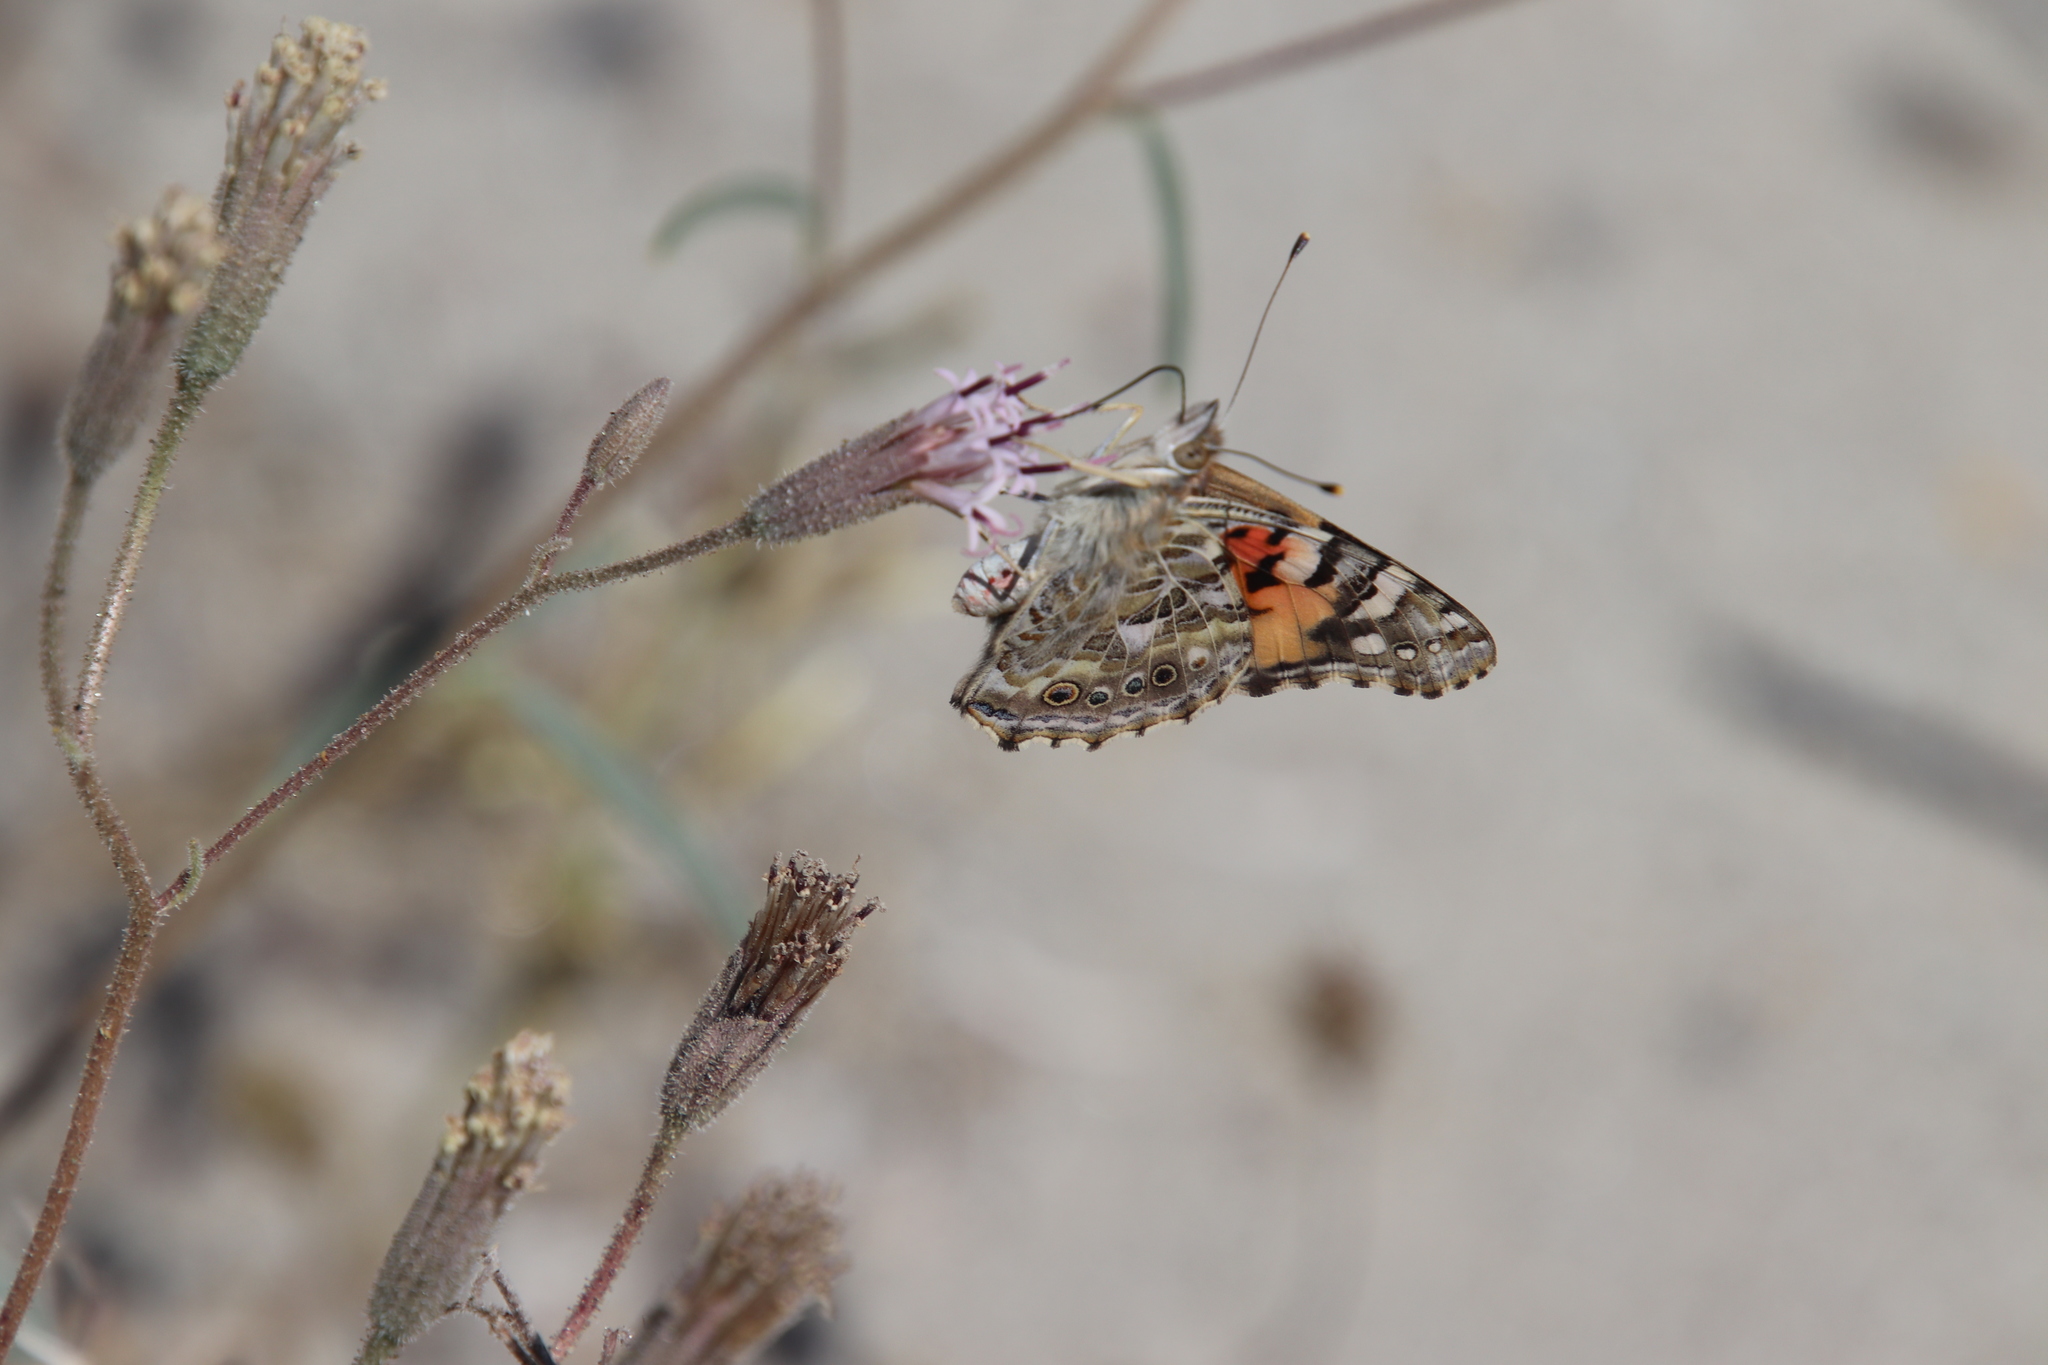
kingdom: Plantae
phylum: Tracheophyta
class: Magnoliopsida
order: Asterales
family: Asteraceae
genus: Palafoxia
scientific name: Palafoxia arida
